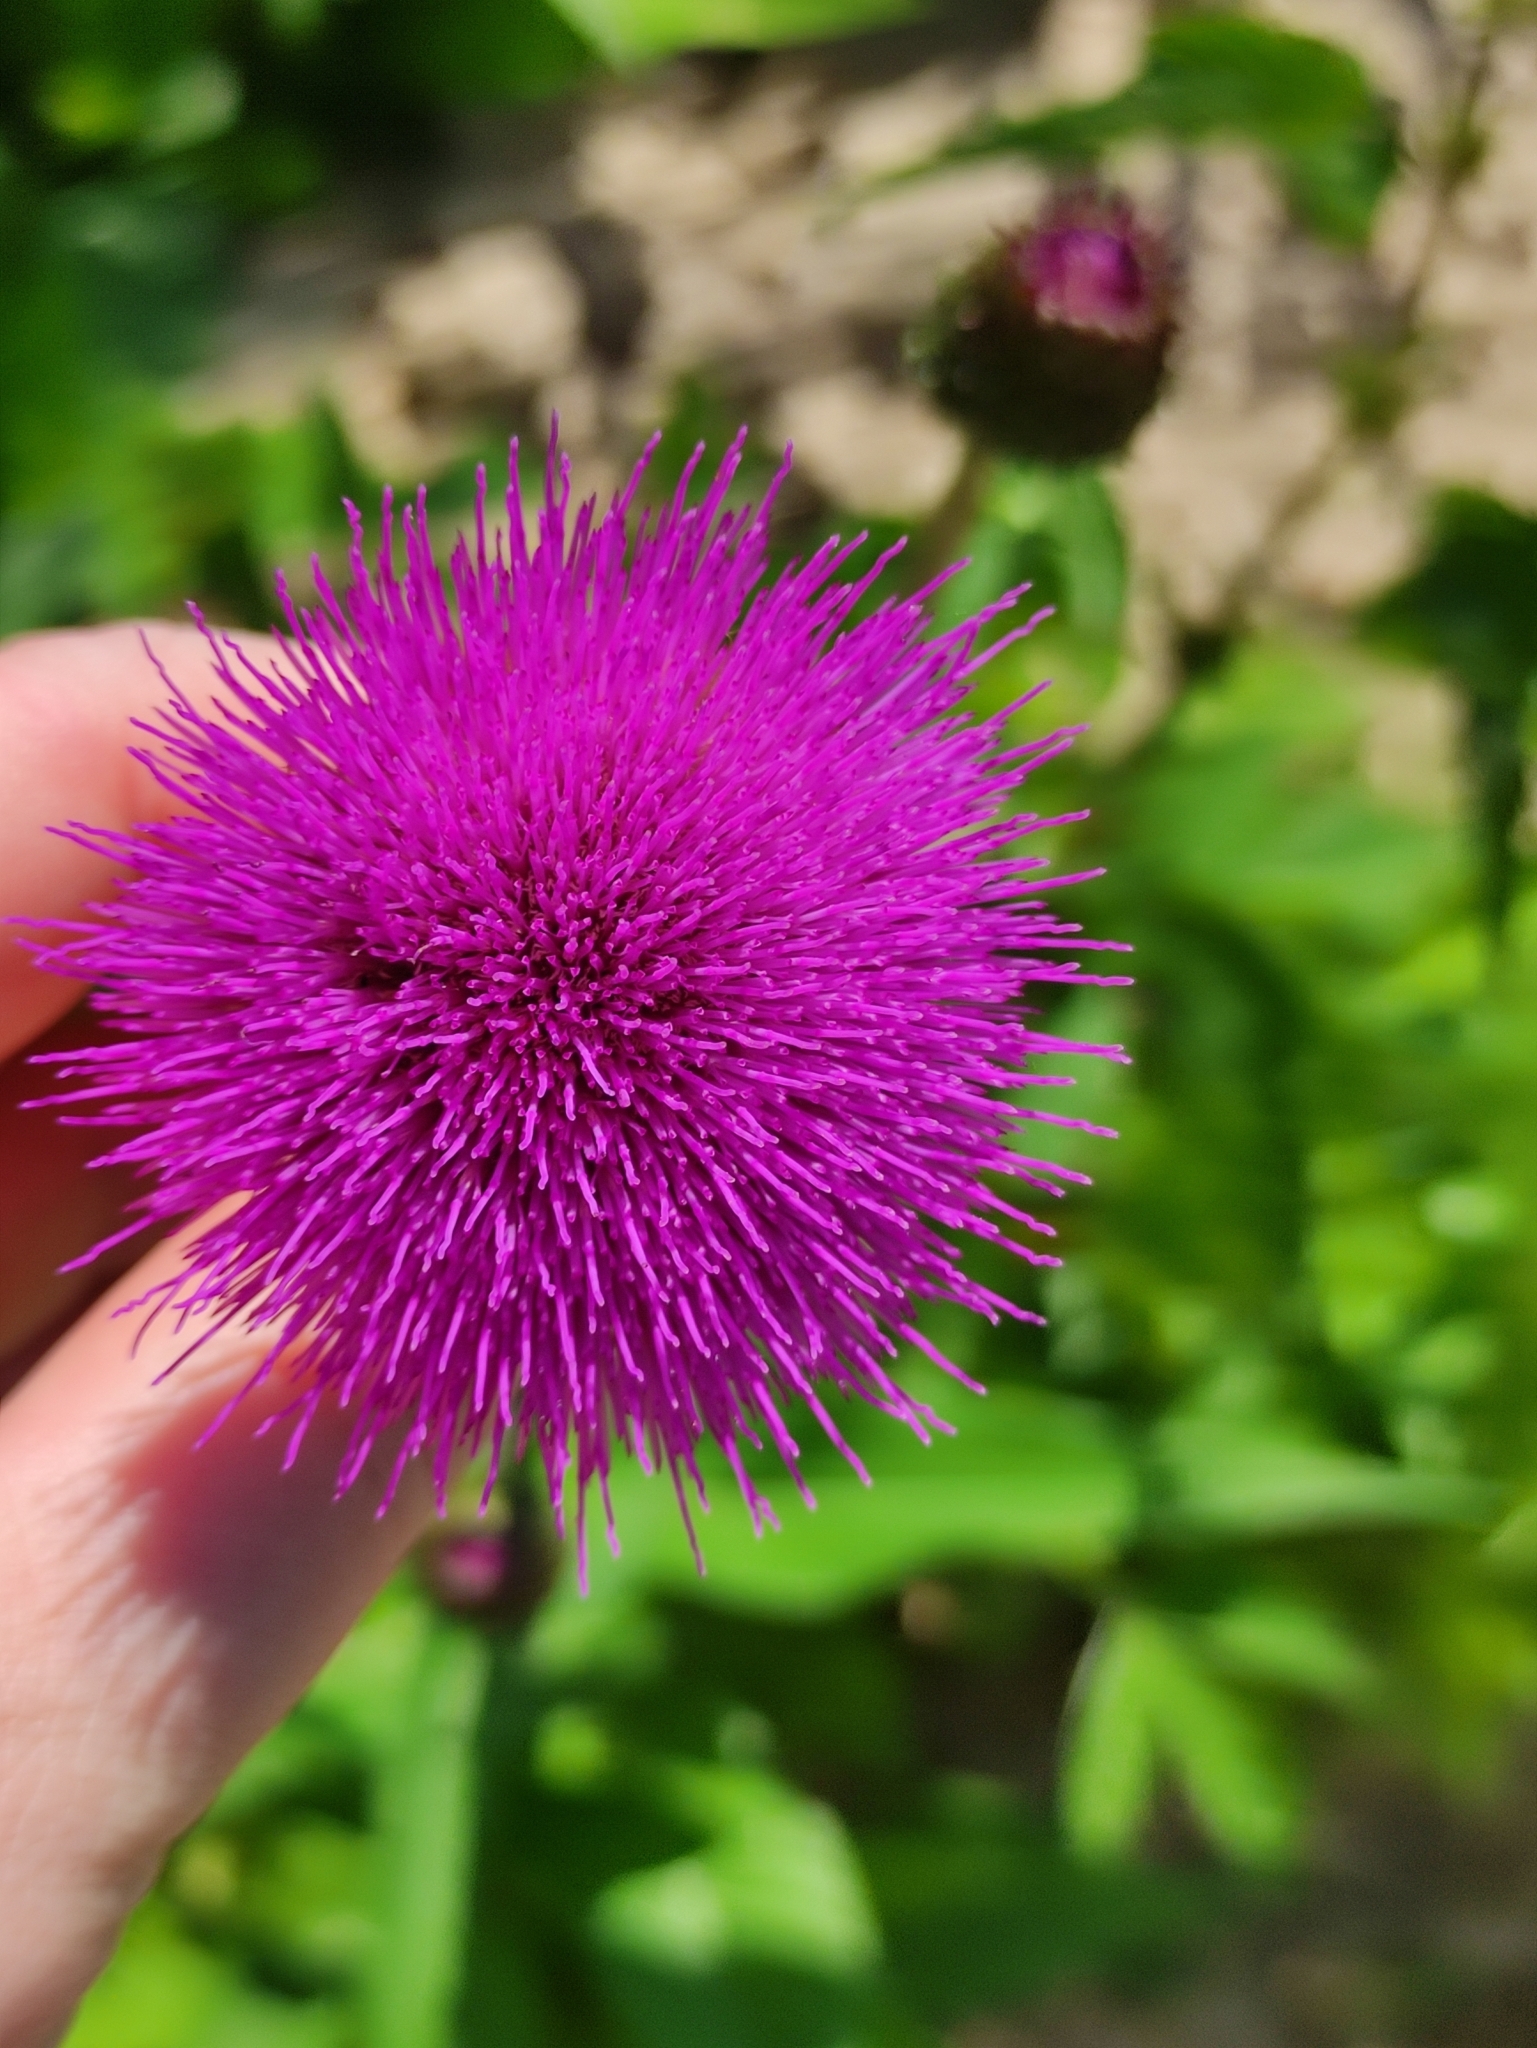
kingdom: Plantae
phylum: Tracheophyta
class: Magnoliopsida
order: Asterales
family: Asteraceae
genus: Cirsium
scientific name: Cirsium heterophyllum
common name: Melancholy thistle
